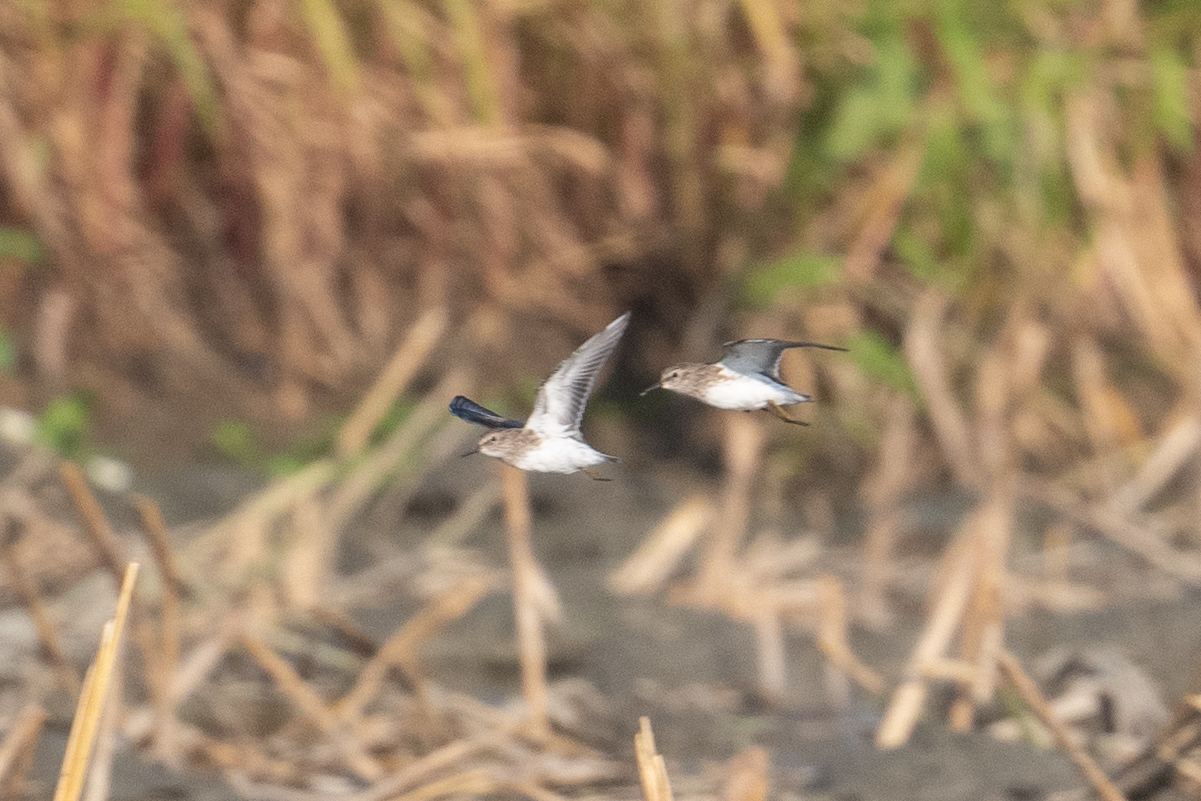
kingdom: Animalia
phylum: Chordata
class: Aves
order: Charadriiformes
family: Scolopacidae
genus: Calidris
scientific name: Calidris minutilla
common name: Least sandpiper
